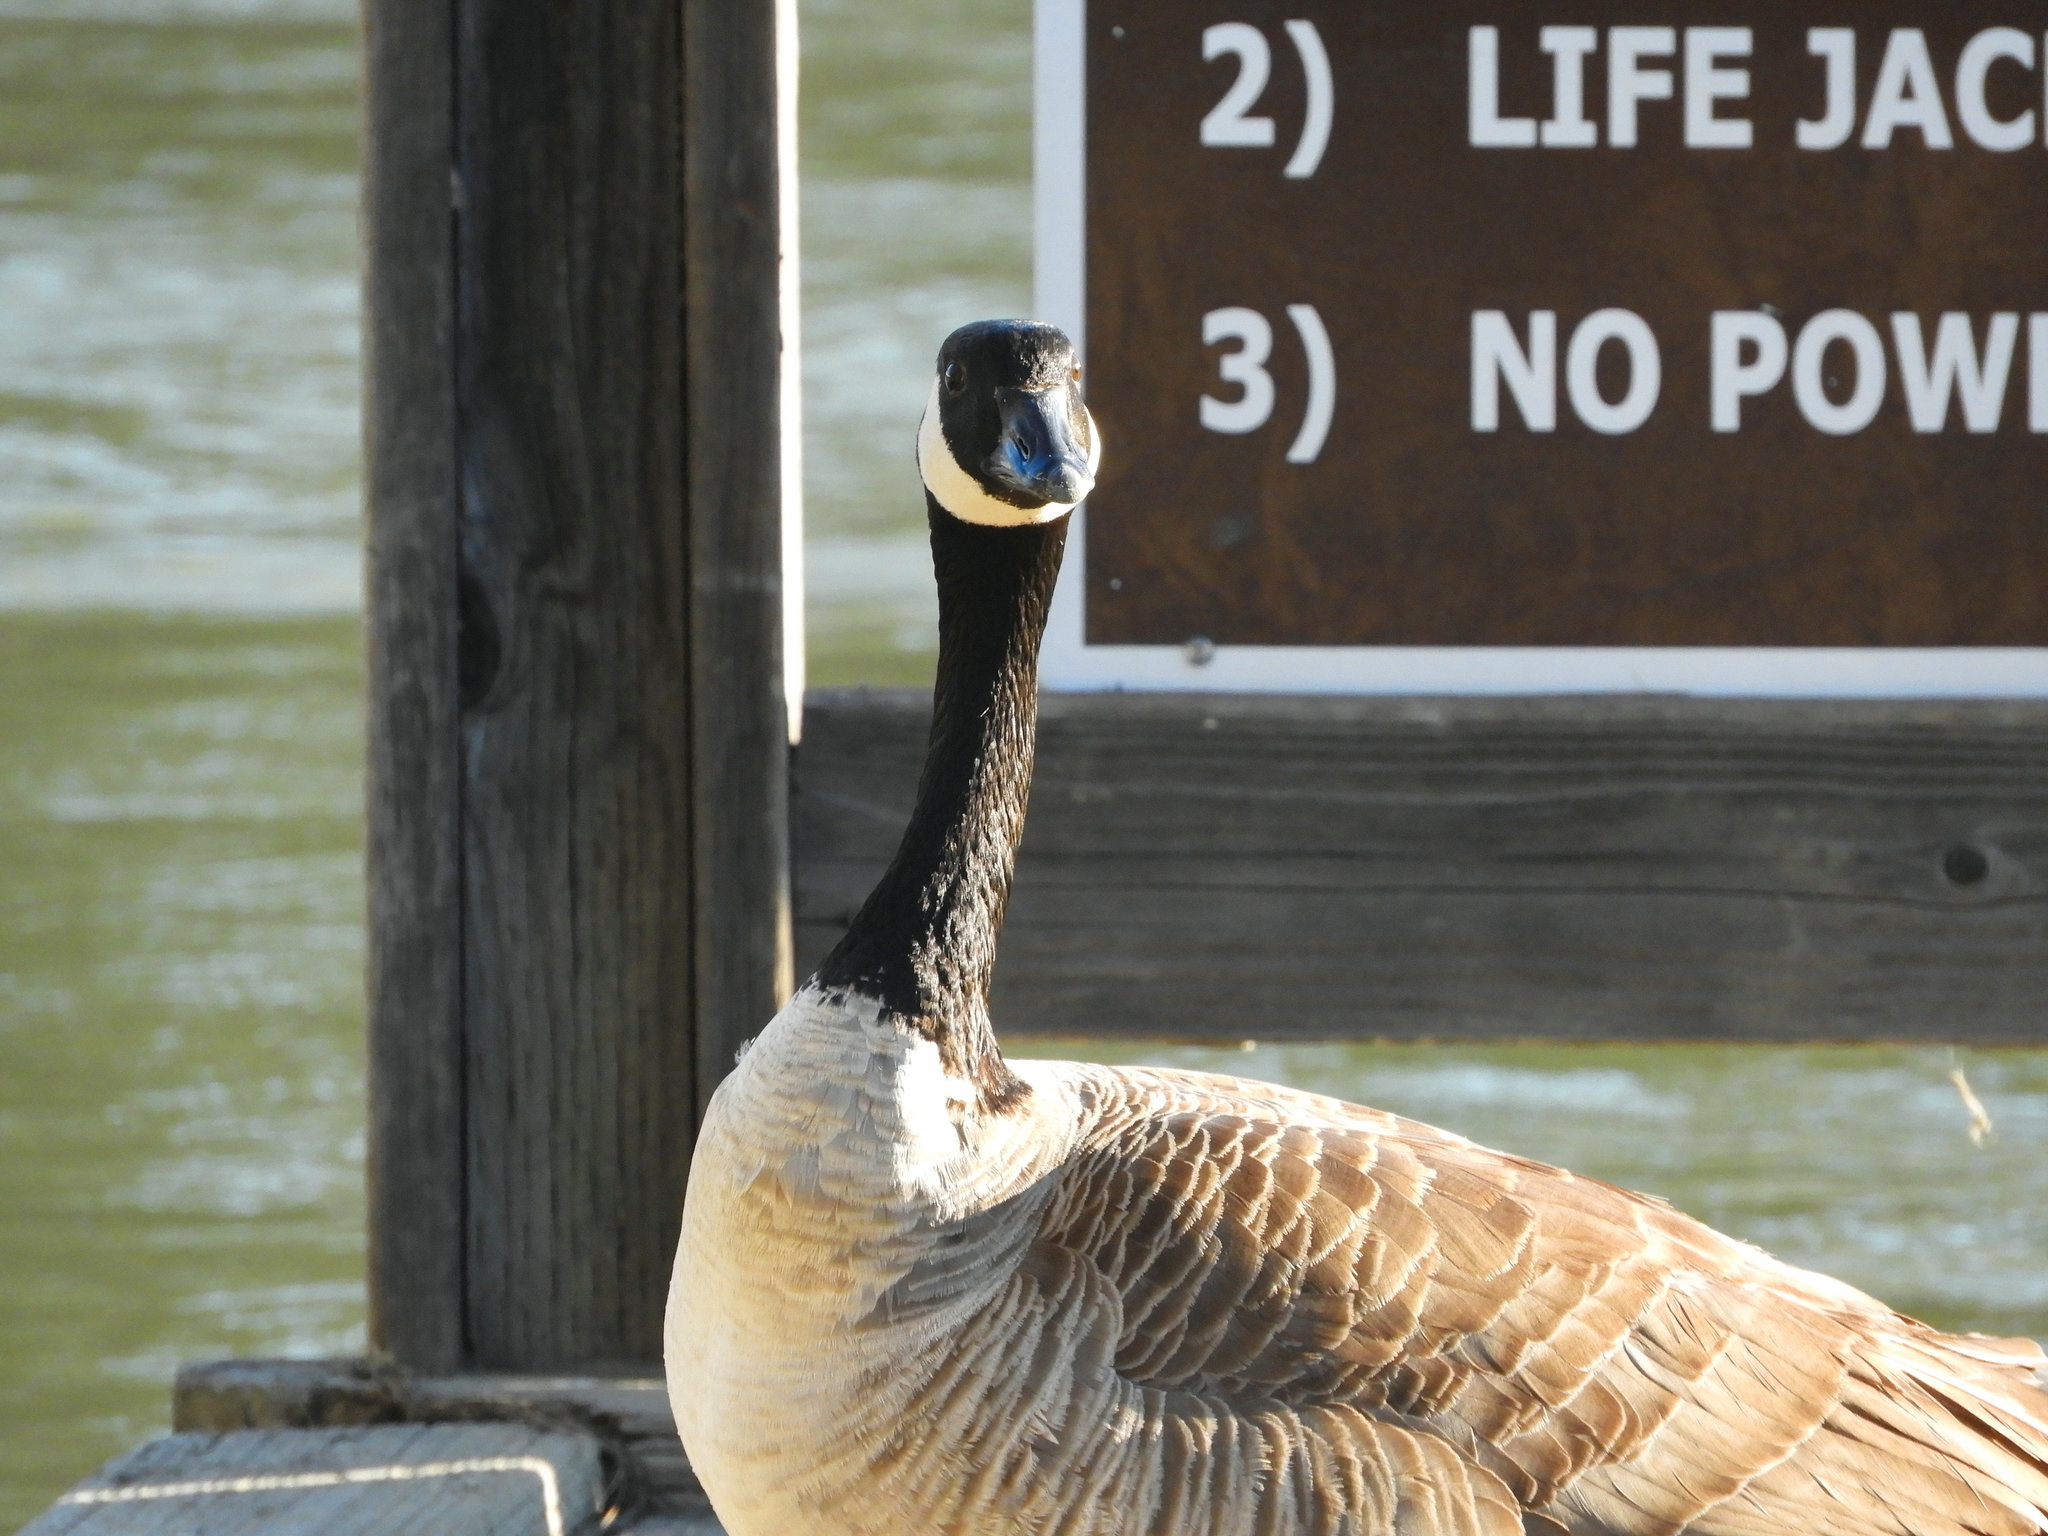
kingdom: Animalia
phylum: Chordata
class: Aves
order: Anseriformes
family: Anatidae
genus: Branta
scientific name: Branta canadensis
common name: Canada goose
